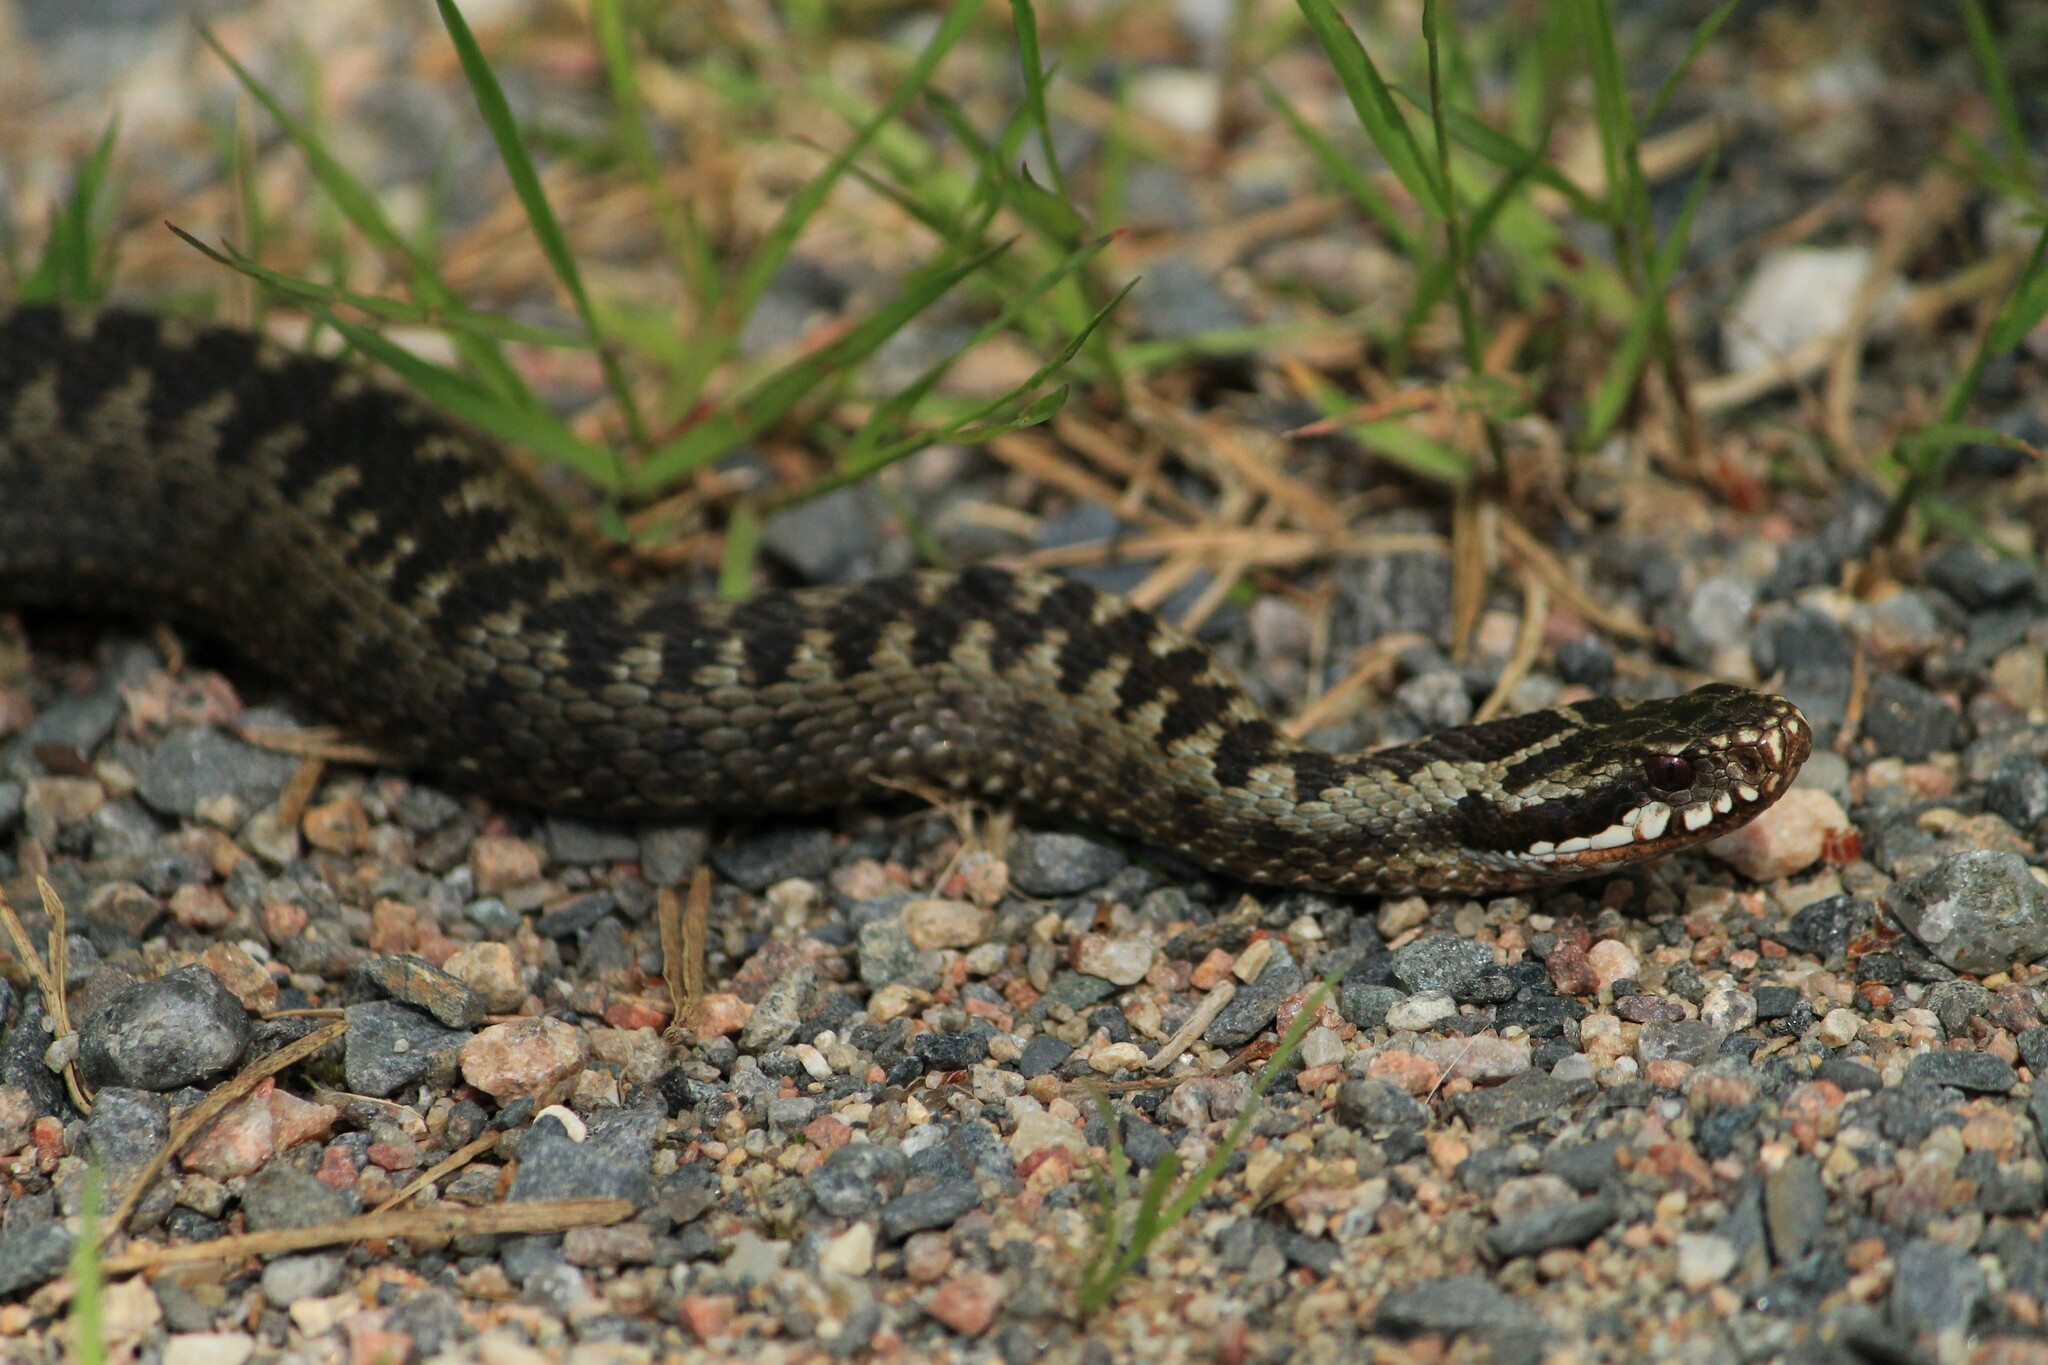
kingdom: Animalia
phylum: Chordata
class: Squamata
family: Viperidae
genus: Vipera
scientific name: Vipera berus
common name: Adder
